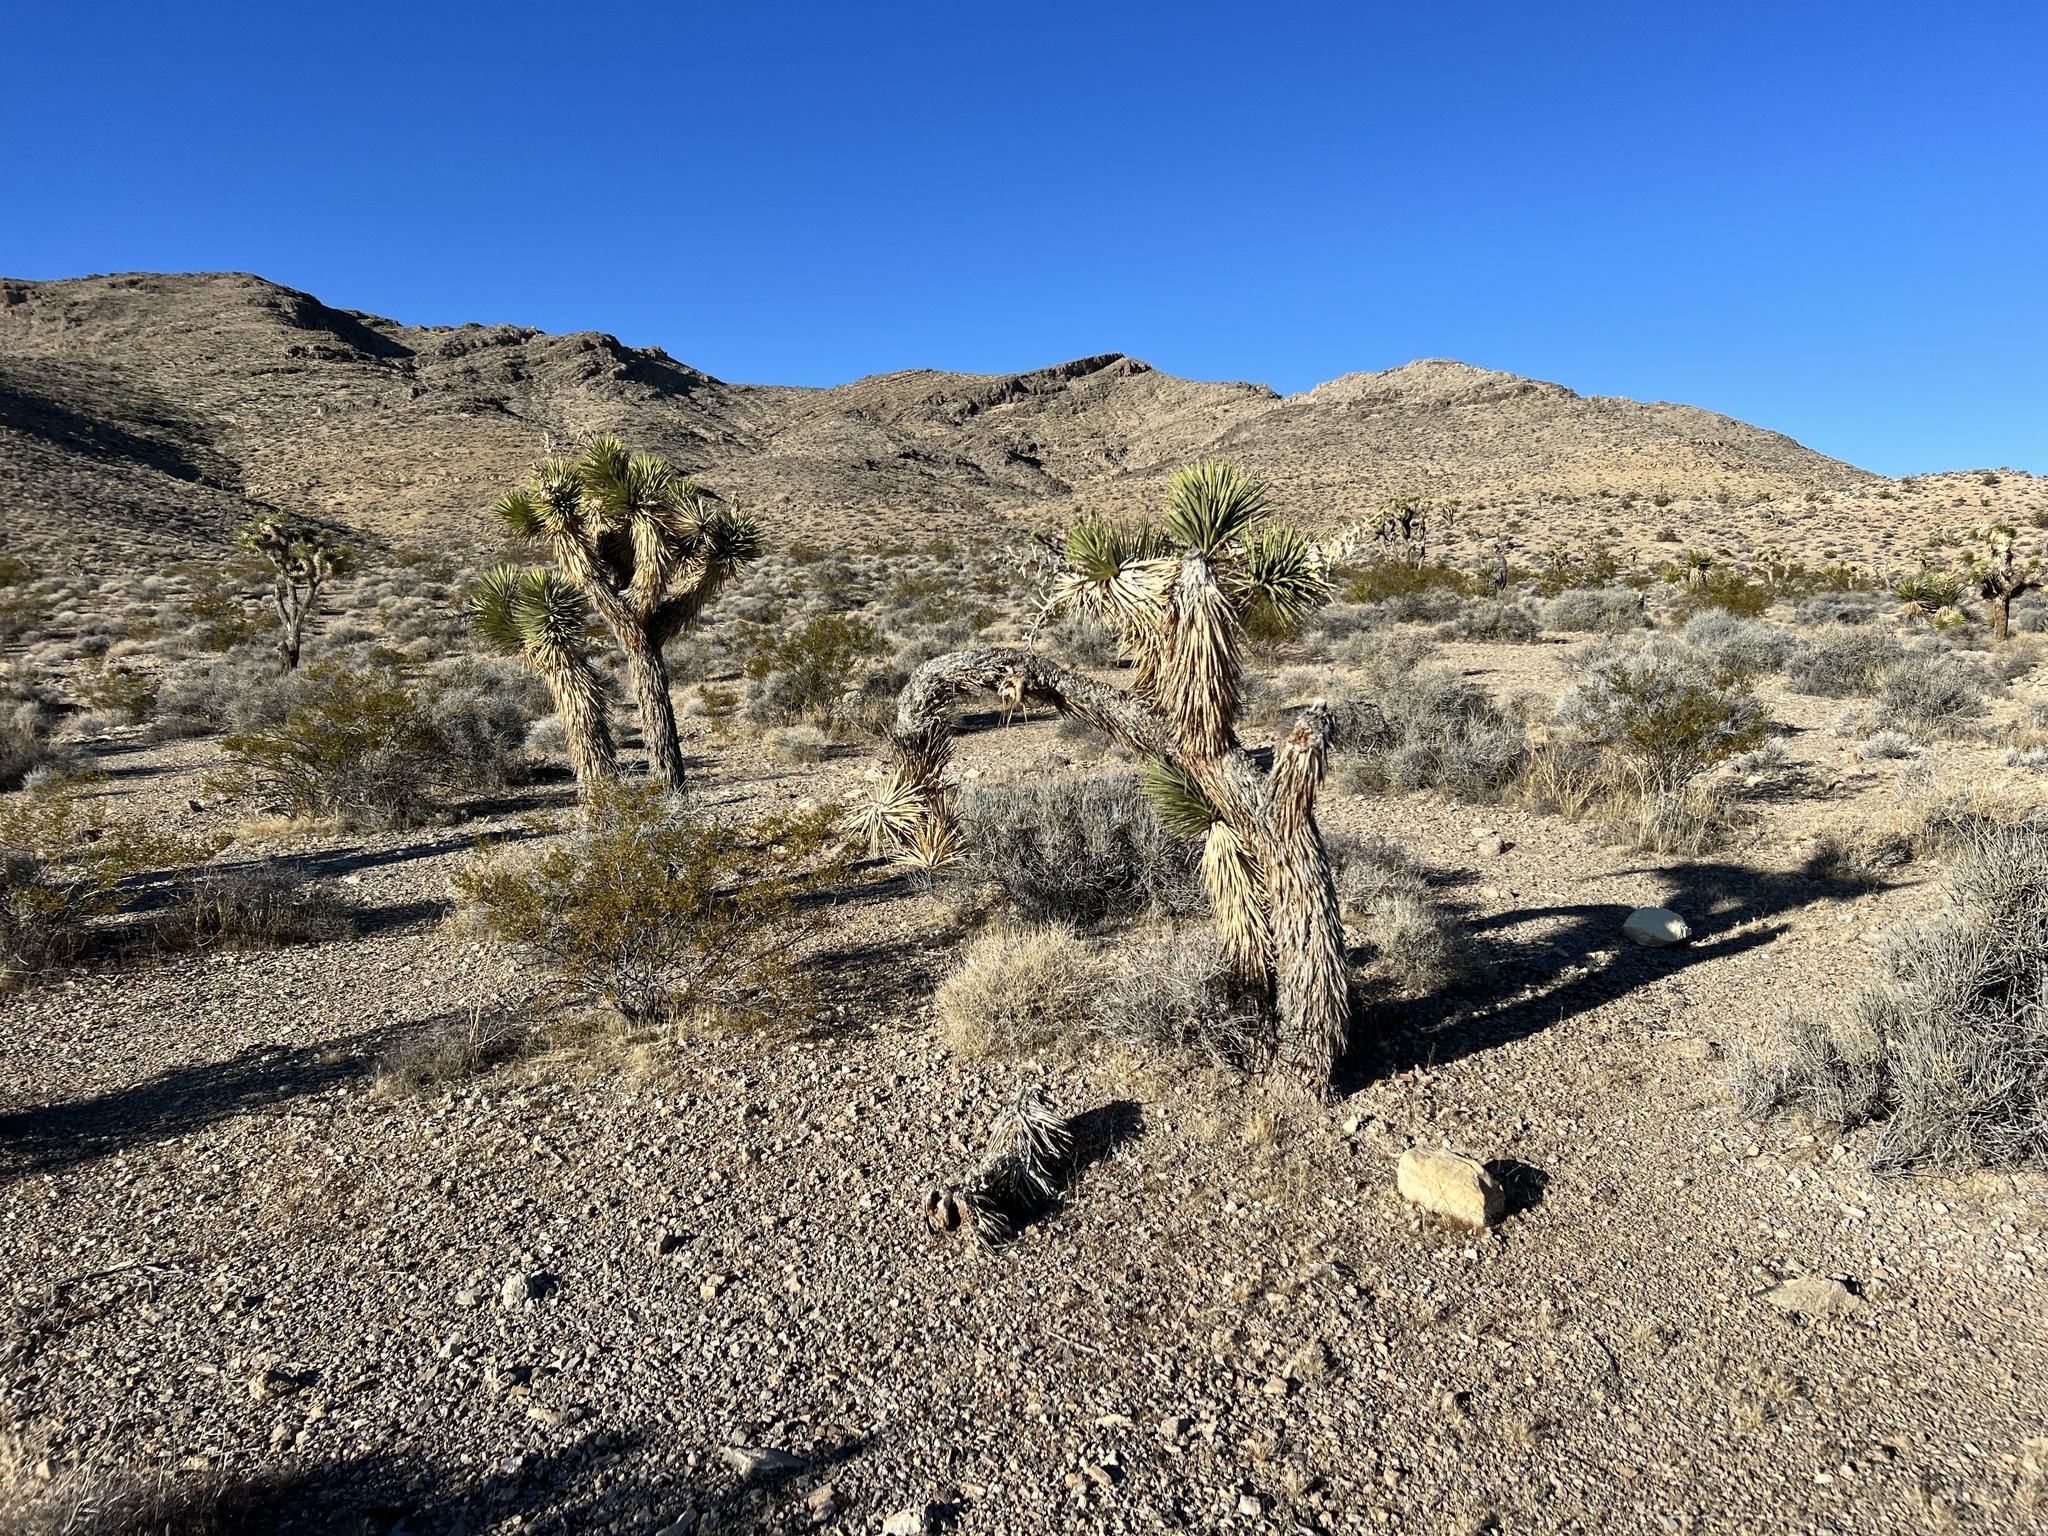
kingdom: Plantae
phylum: Tracheophyta
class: Liliopsida
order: Asparagales
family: Asparagaceae
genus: Yucca
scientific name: Yucca brevifolia
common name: Joshua tree
